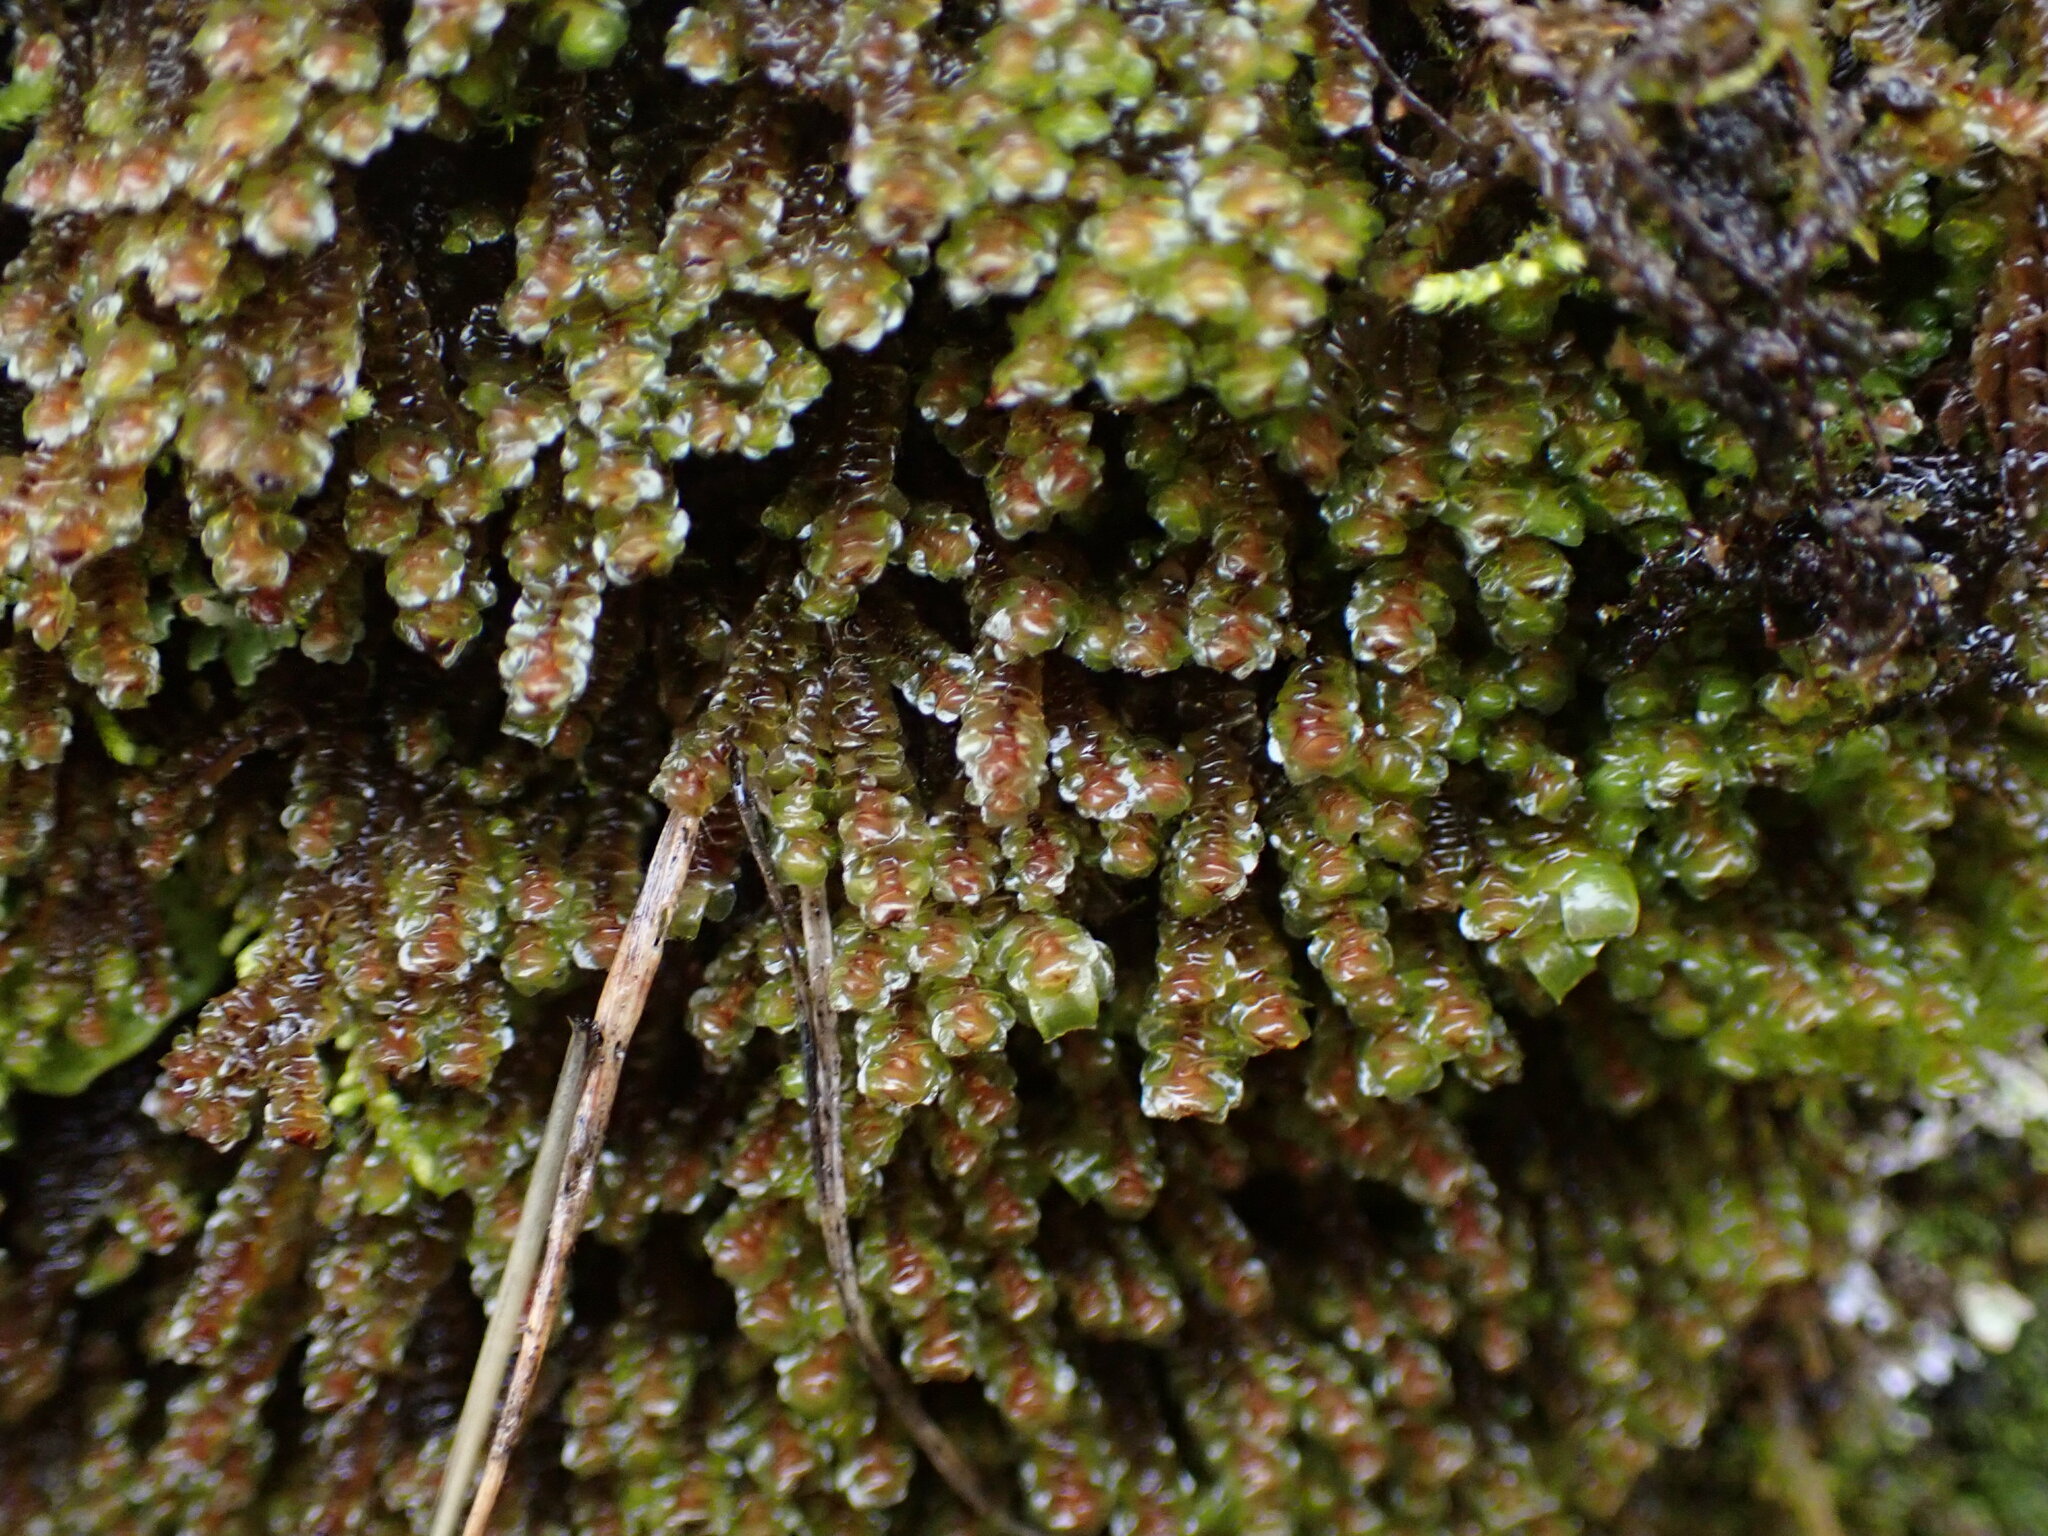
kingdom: Plantae
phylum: Marchantiophyta
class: Jungermanniopsida
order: Jungermanniales
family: Scapaniaceae
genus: Scapania
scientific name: Scapania americana
